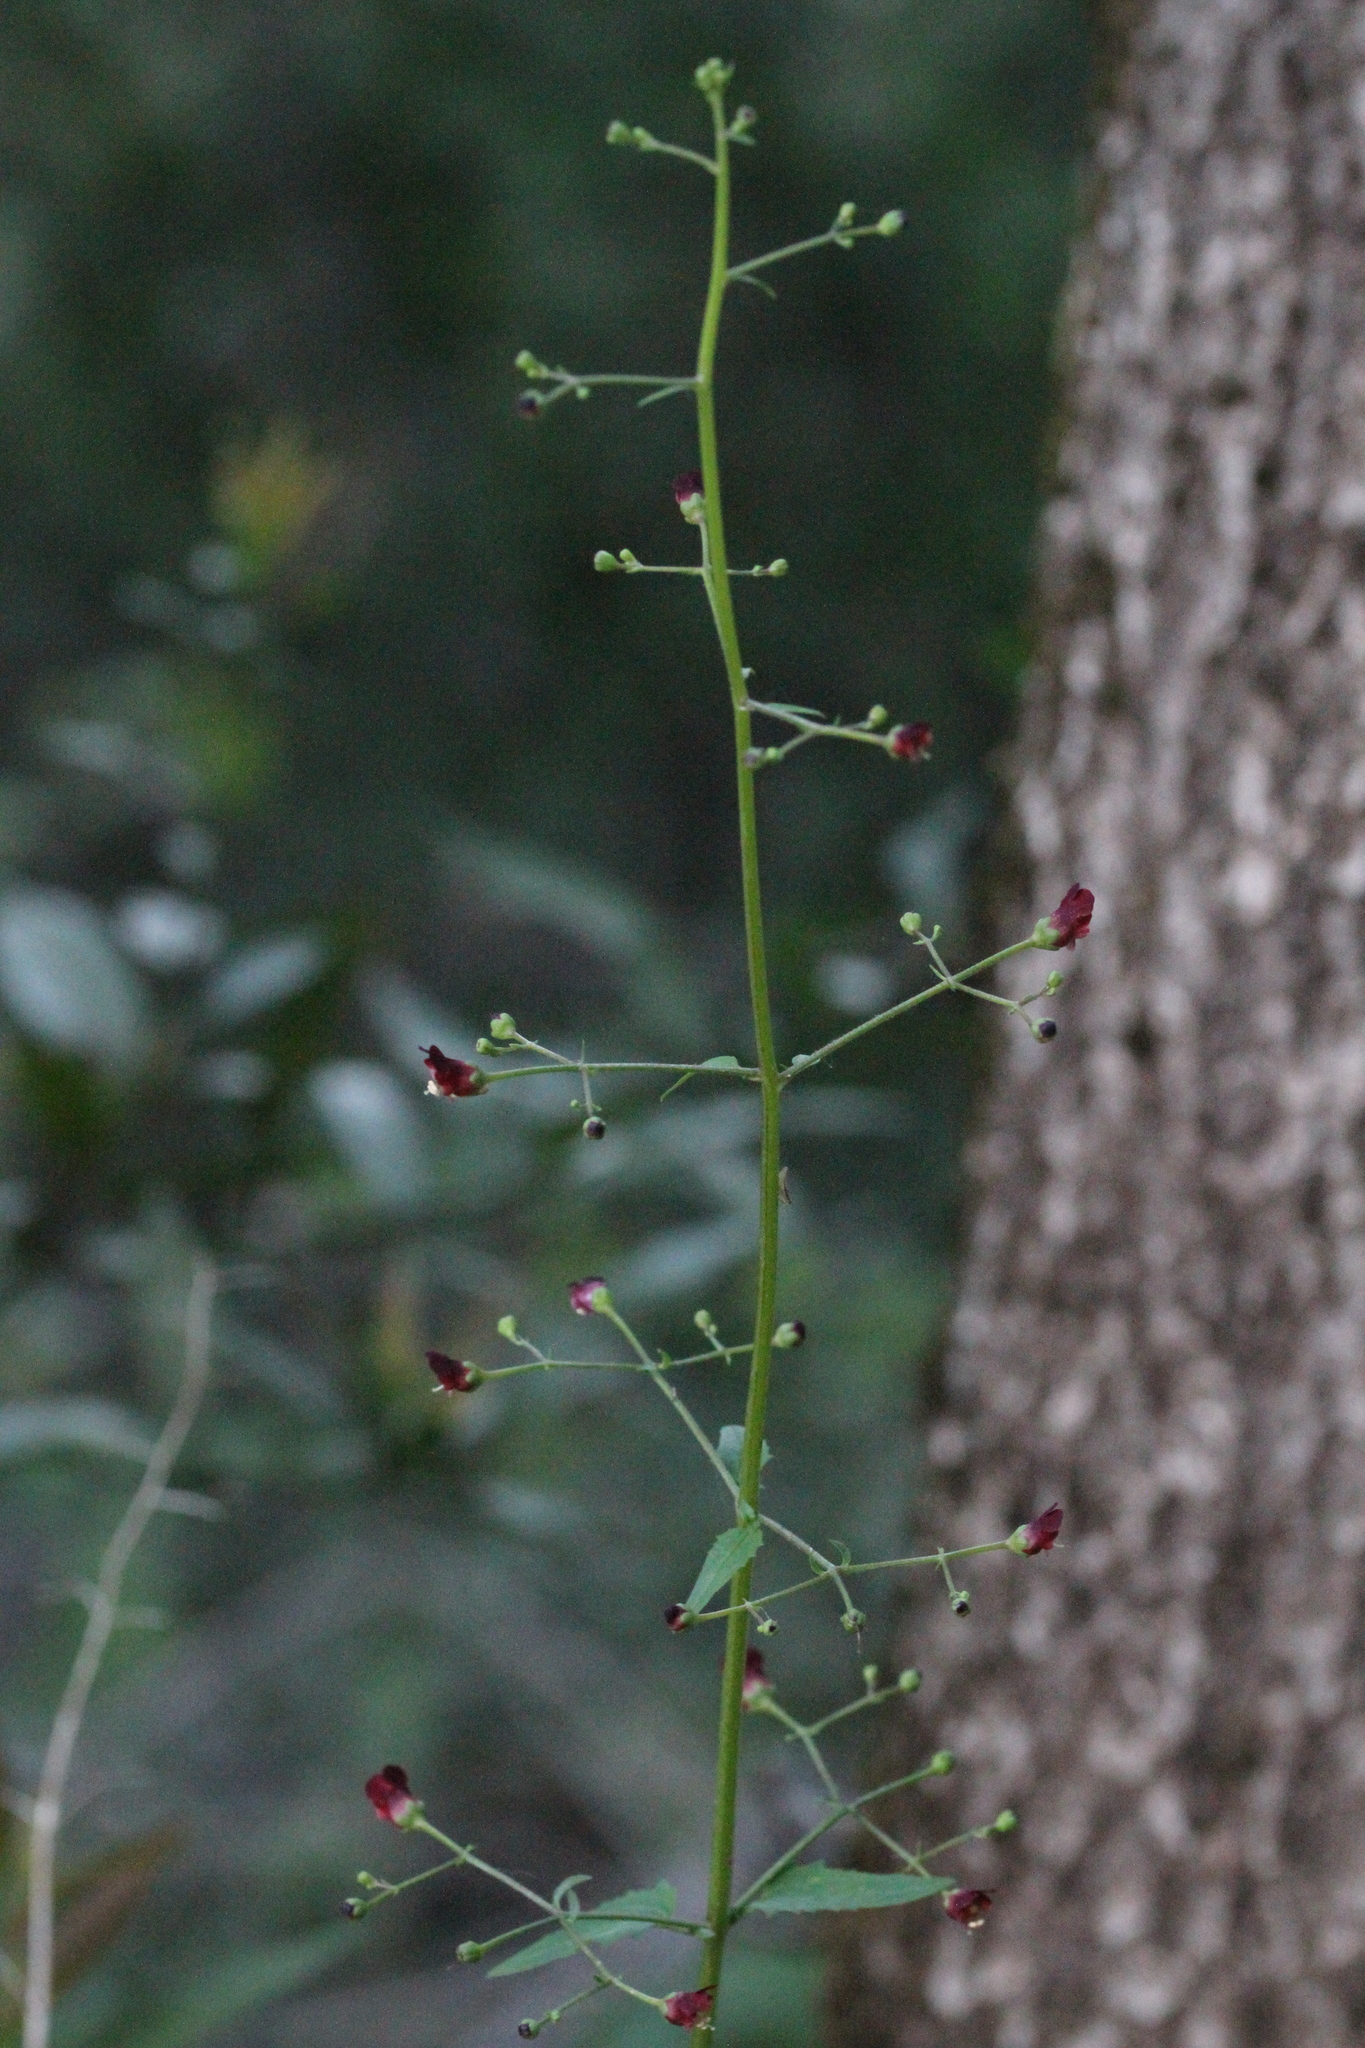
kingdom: Plantae
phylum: Tracheophyta
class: Magnoliopsida
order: Lamiales
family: Scrophulariaceae
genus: Scrophularia
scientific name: Scrophularia californica
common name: California figwort
